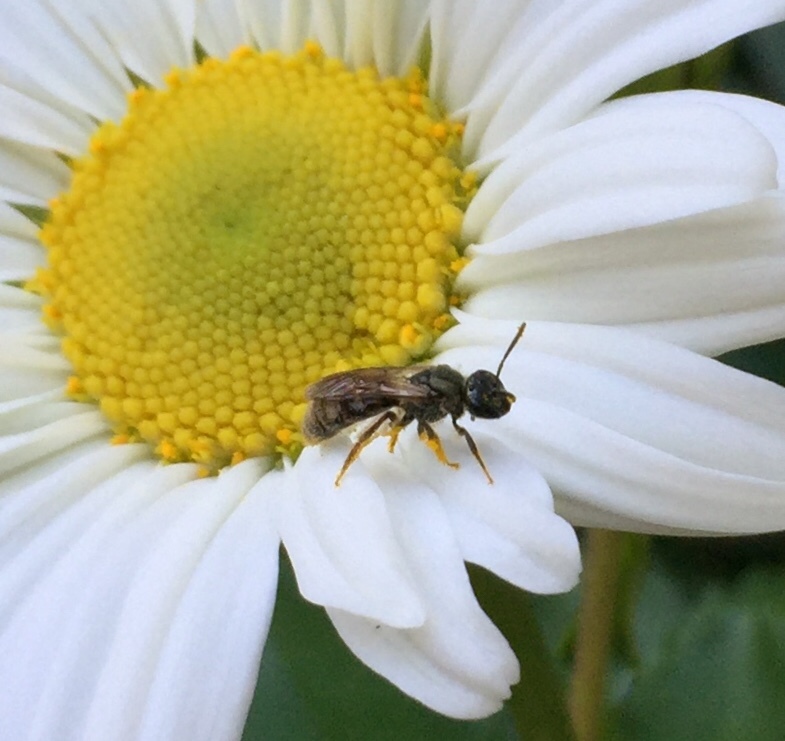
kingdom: Animalia
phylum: Arthropoda
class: Insecta
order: Hymenoptera
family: Halictidae
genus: Dialictus
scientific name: Dialictus
